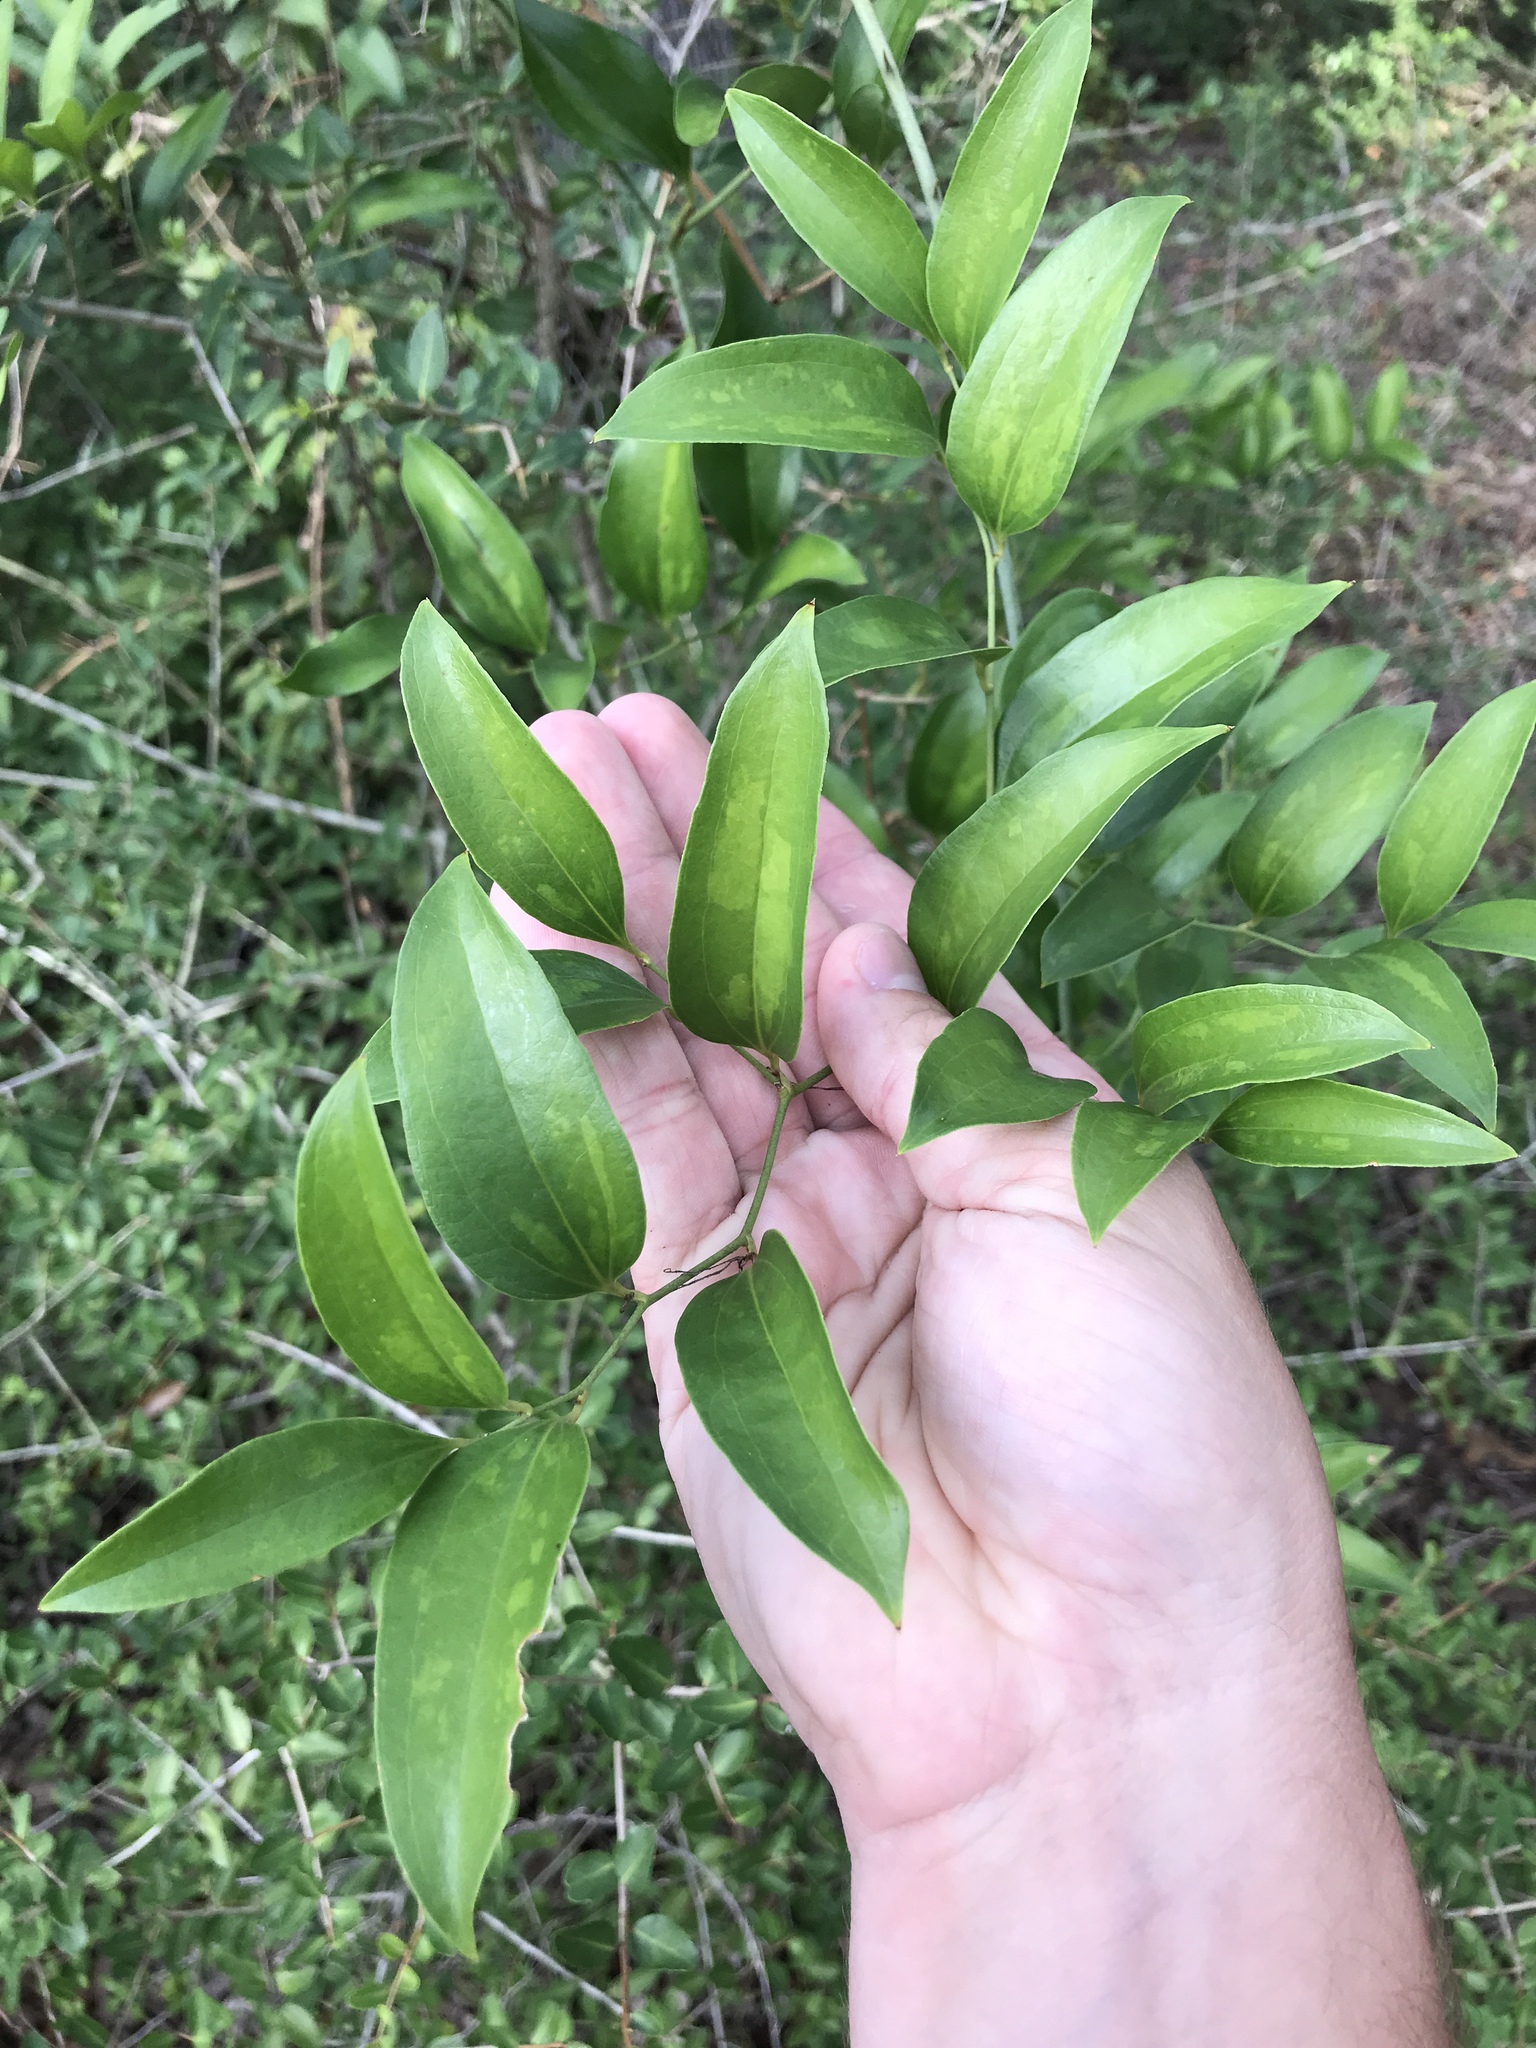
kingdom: Plantae
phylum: Tracheophyta
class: Liliopsida
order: Liliales
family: Smilacaceae
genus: Smilax
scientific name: Smilax maritima
